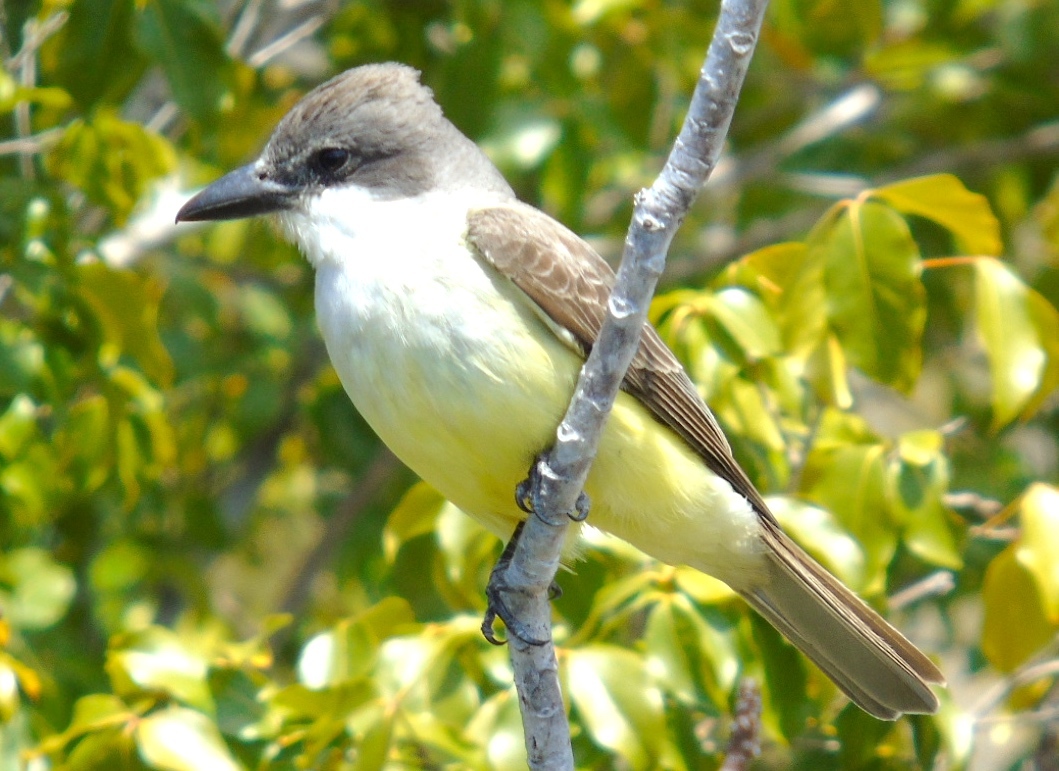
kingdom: Animalia
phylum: Chordata
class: Aves
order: Passeriformes
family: Tyrannidae
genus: Tyrannus
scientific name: Tyrannus crassirostris
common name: Thick-billed kingbird
